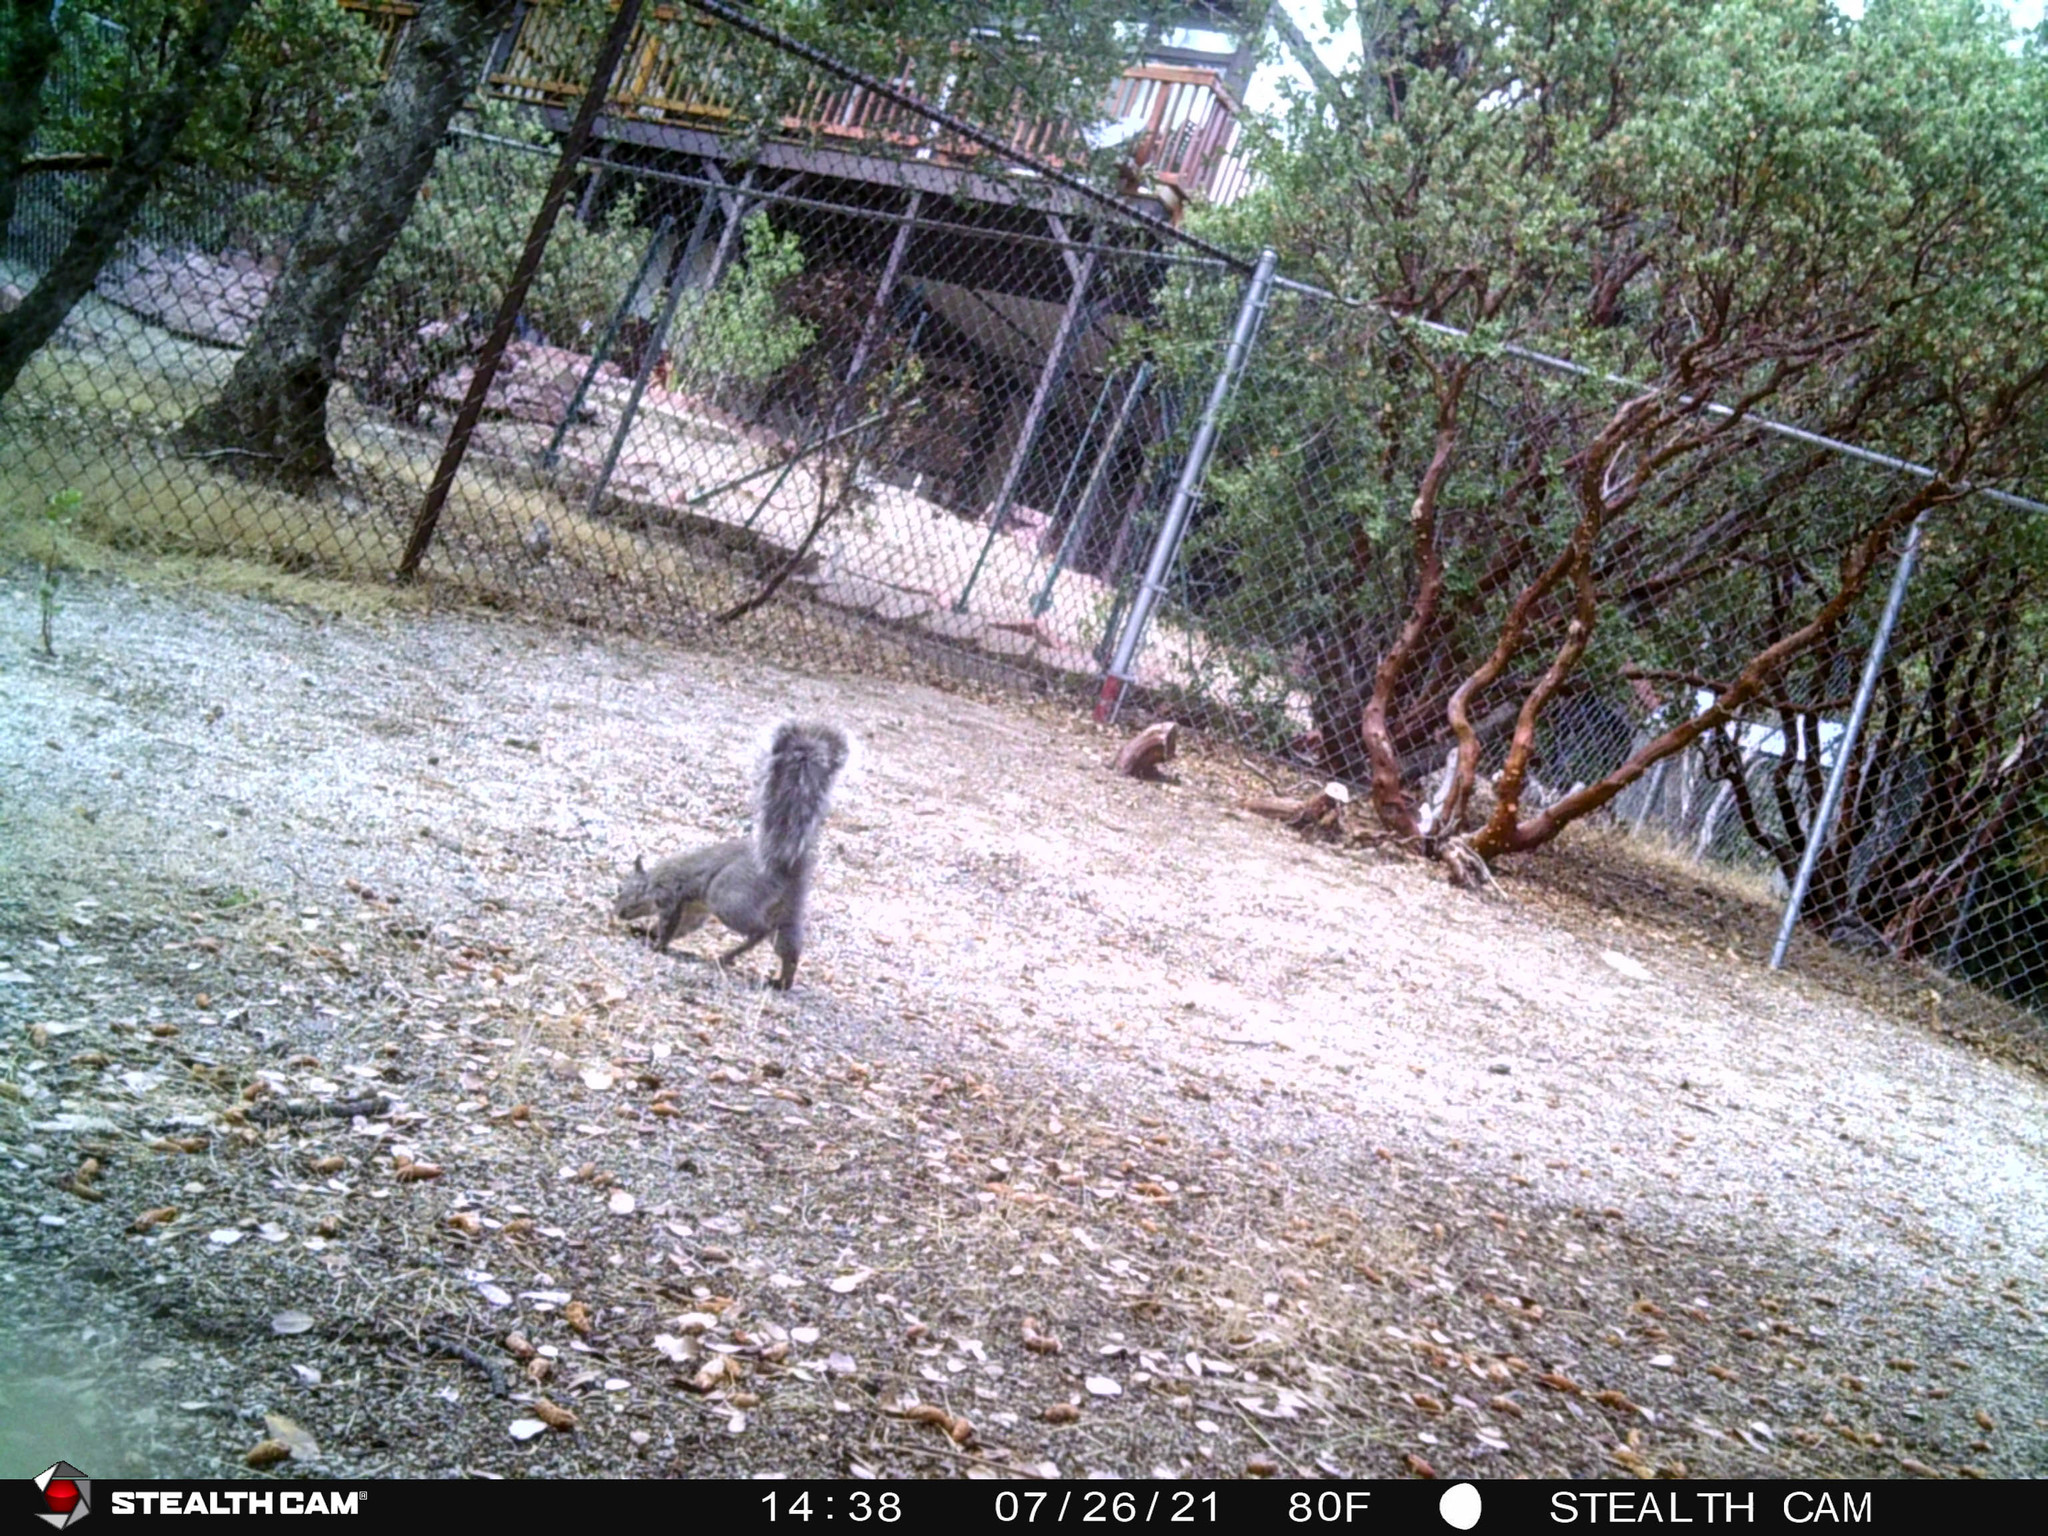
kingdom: Animalia
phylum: Chordata
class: Mammalia
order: Rodentia
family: Sciuridae
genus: Sciurus
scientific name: Sciurus griseus
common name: Western gray squirrel
